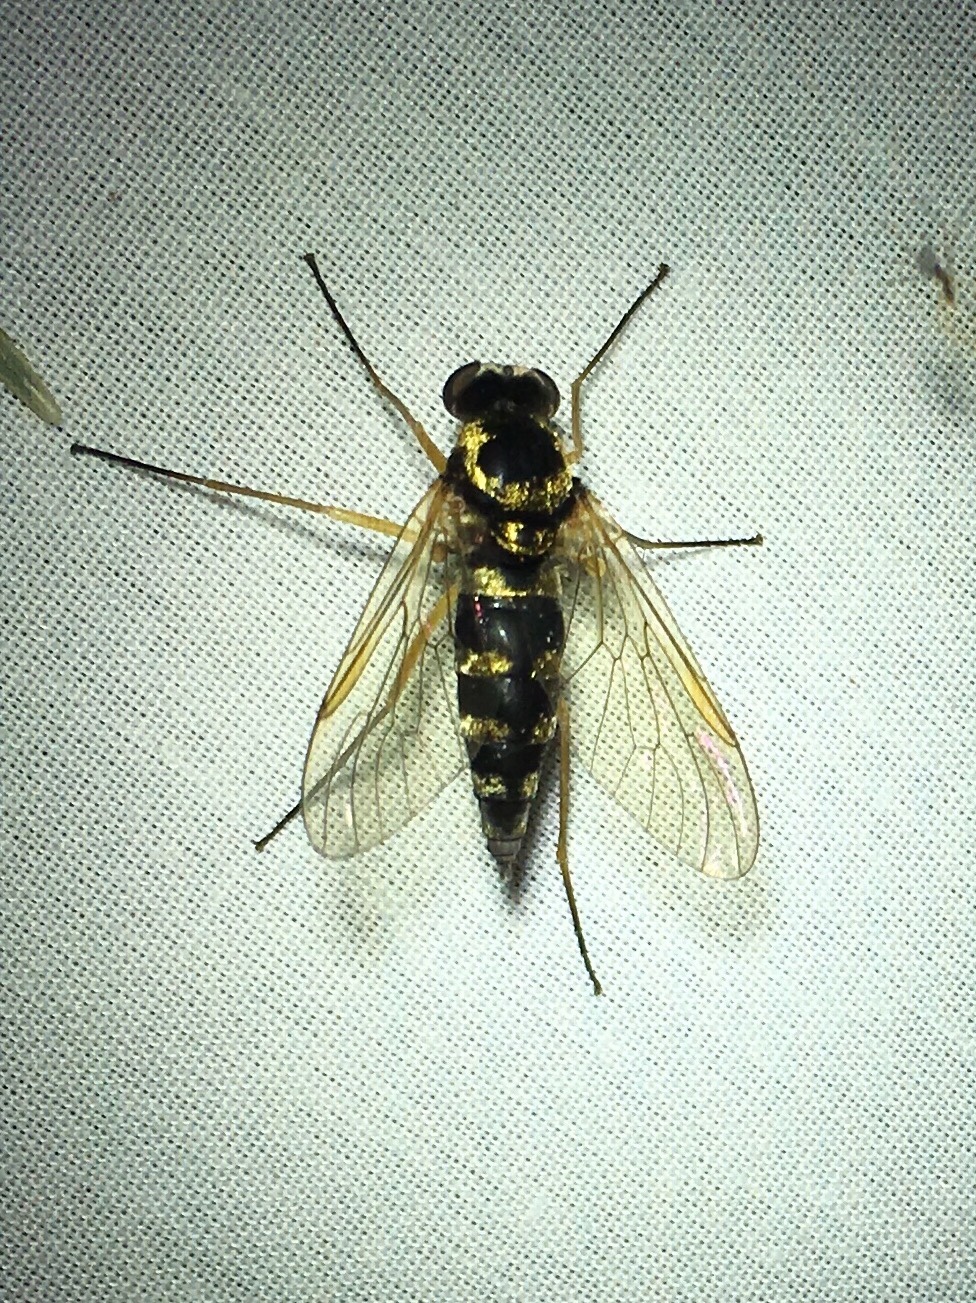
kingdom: Animalia
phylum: Arthropoda
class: Insecta
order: Diptera
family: Rhagionidae
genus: Chrysopilus
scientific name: Chrysopilus ornatus
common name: Ornate snipe fly
